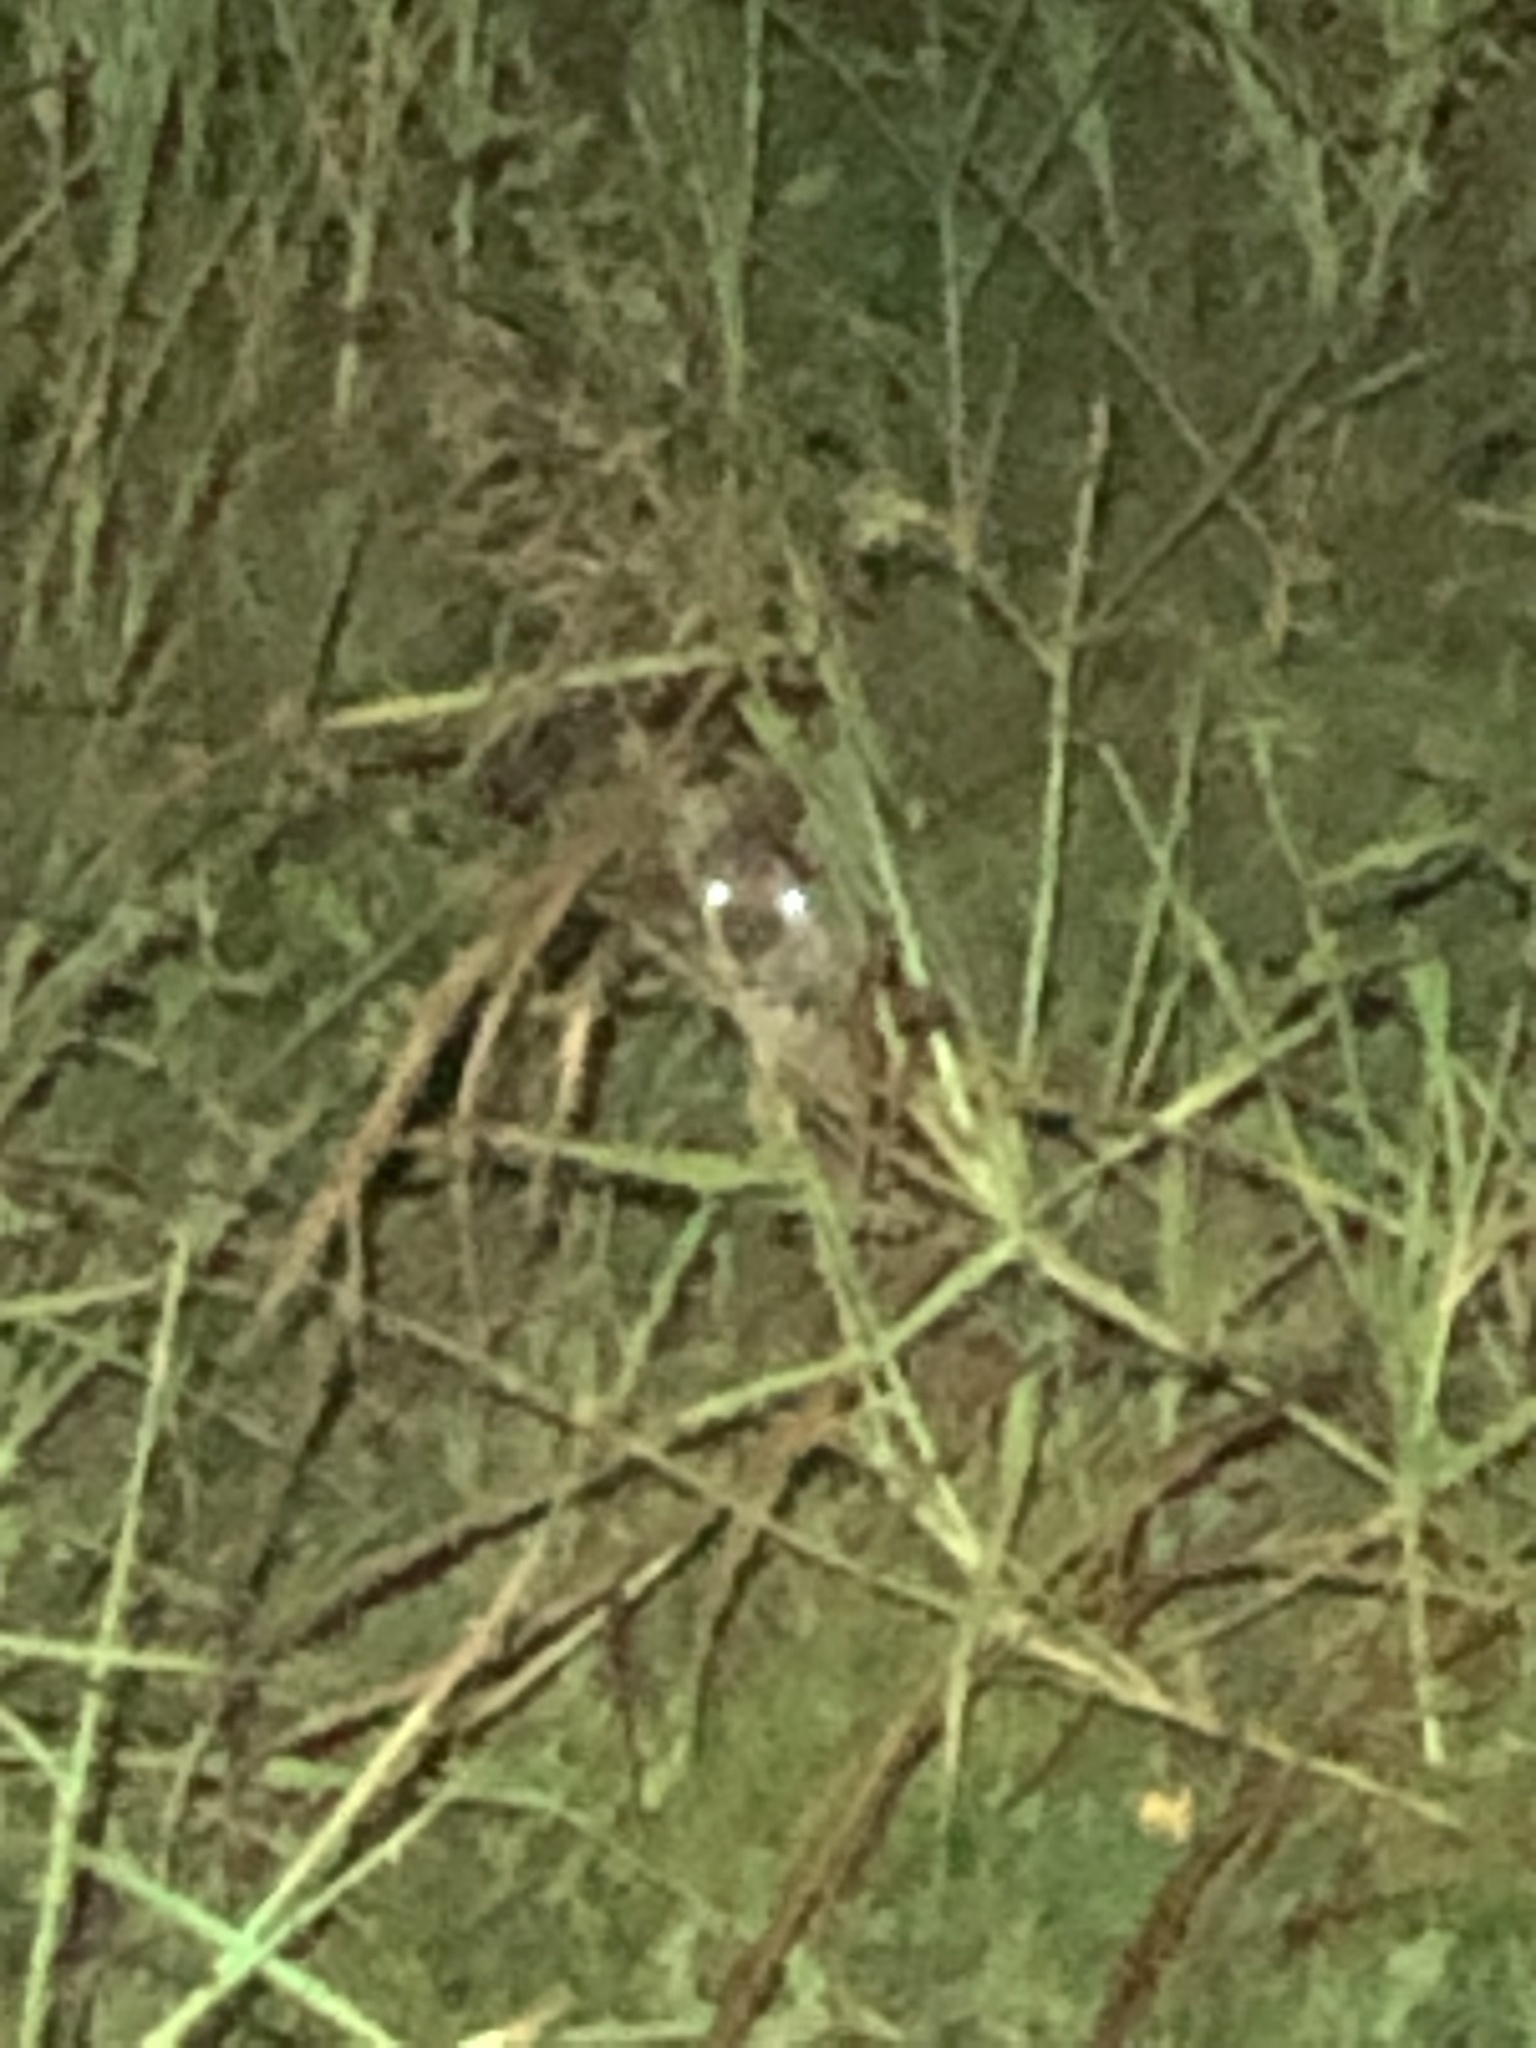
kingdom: Animalia
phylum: Chordata
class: Mammalia
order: Carnivora
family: Felidae
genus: Lynx
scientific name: Lynx rufus
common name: Bobcat
